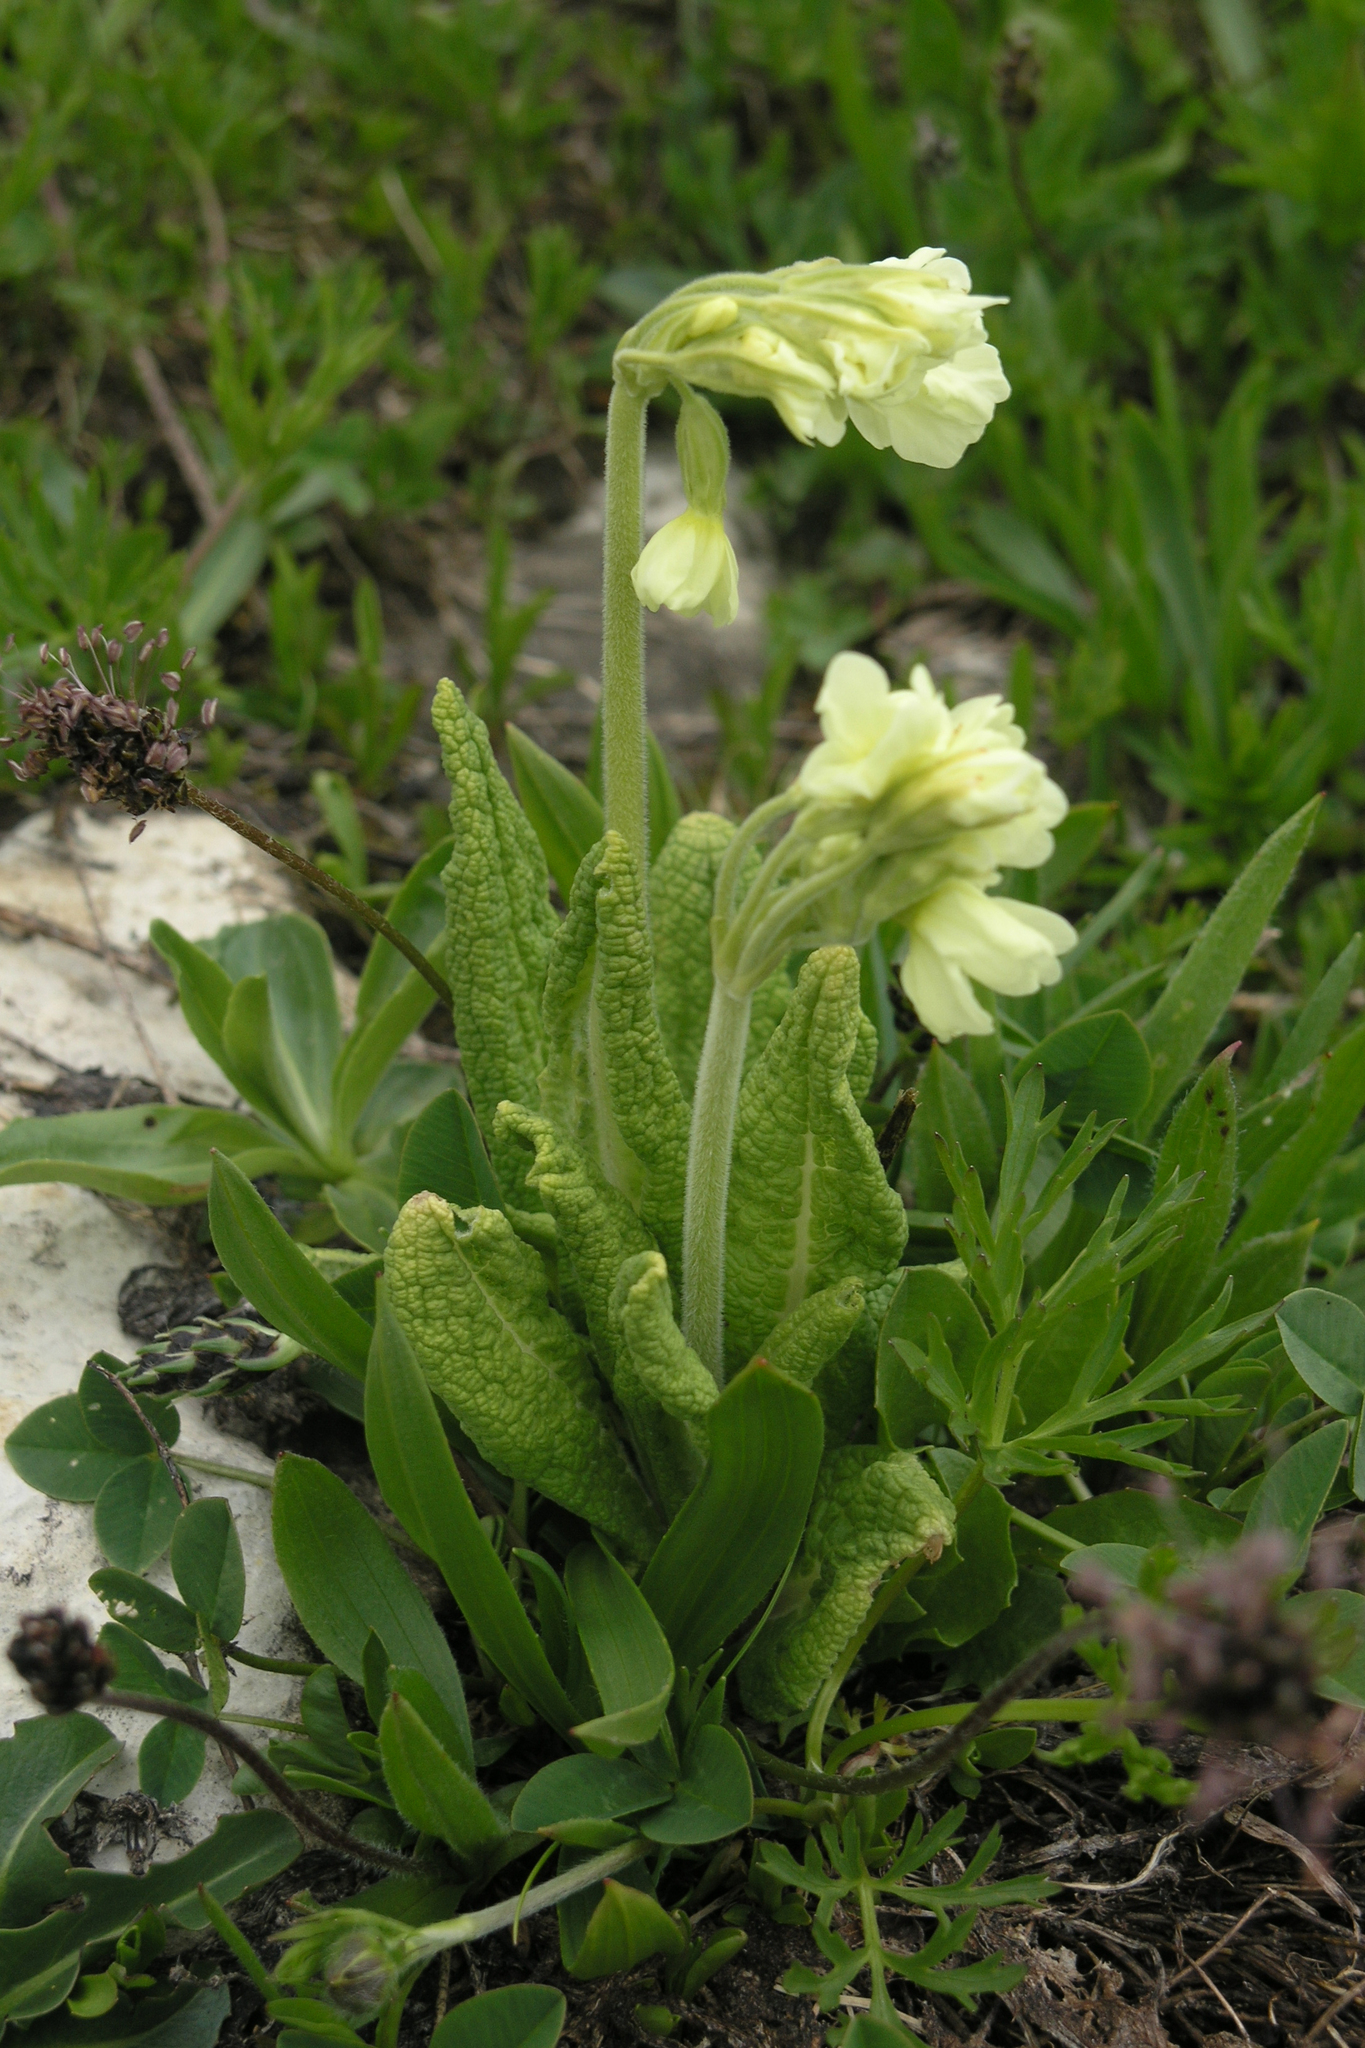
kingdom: Plantae
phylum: Tracheophyta
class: Magnoliopsida
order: Ericales
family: Primulaceae
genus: Primula
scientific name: Primula ruprechtii
